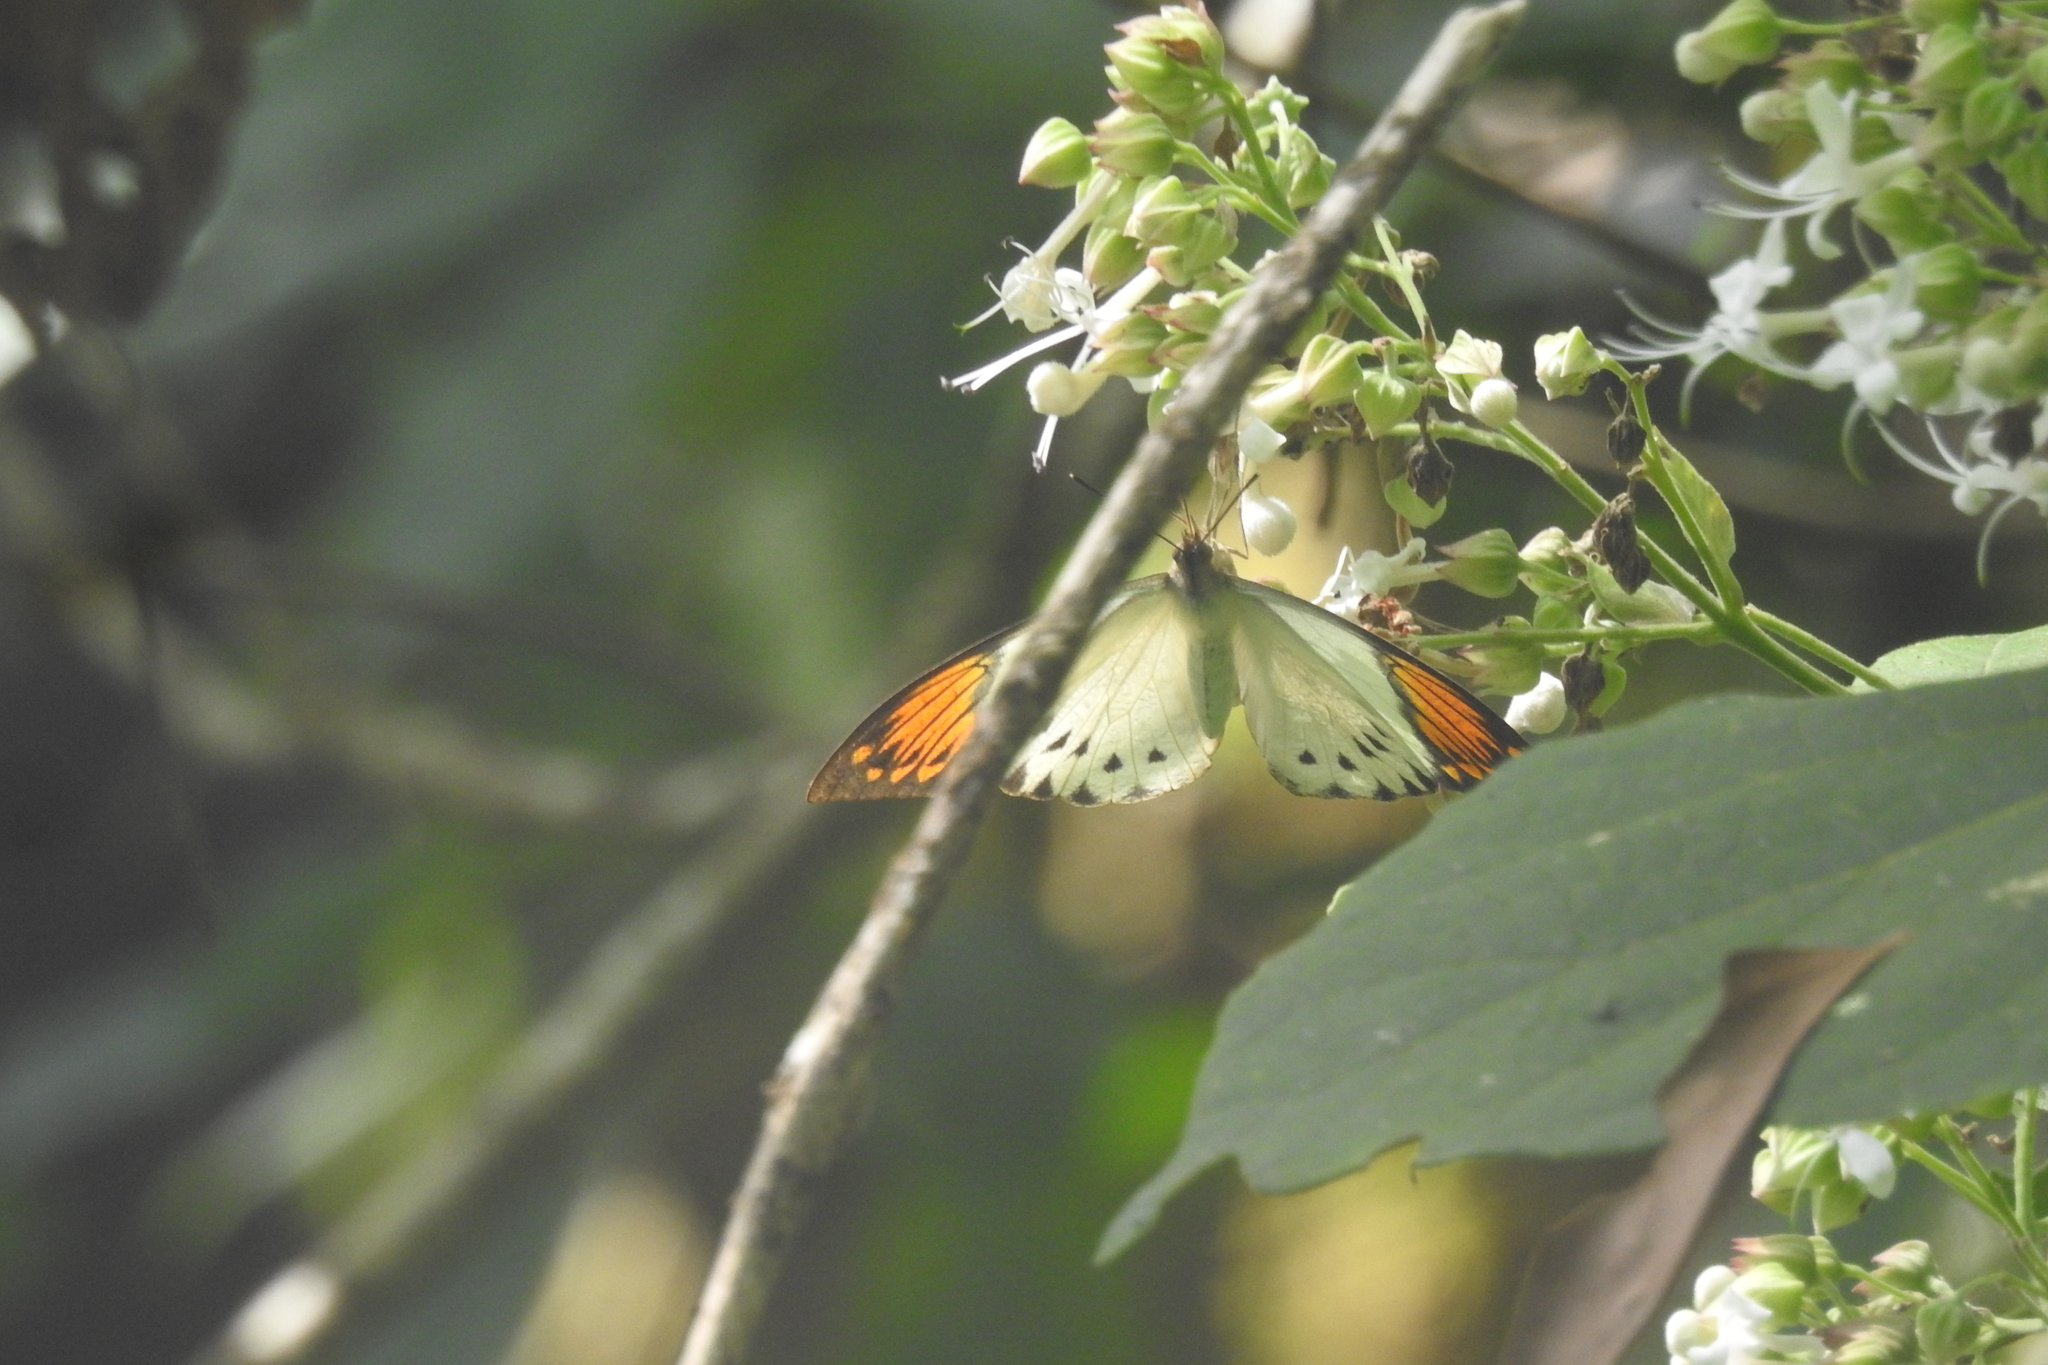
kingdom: Animalia
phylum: Arthropoda
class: Insecta
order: Lepidoptera
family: Pieridae
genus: Hebomoia
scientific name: Hebomoia glaucippe
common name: Great orange tip
